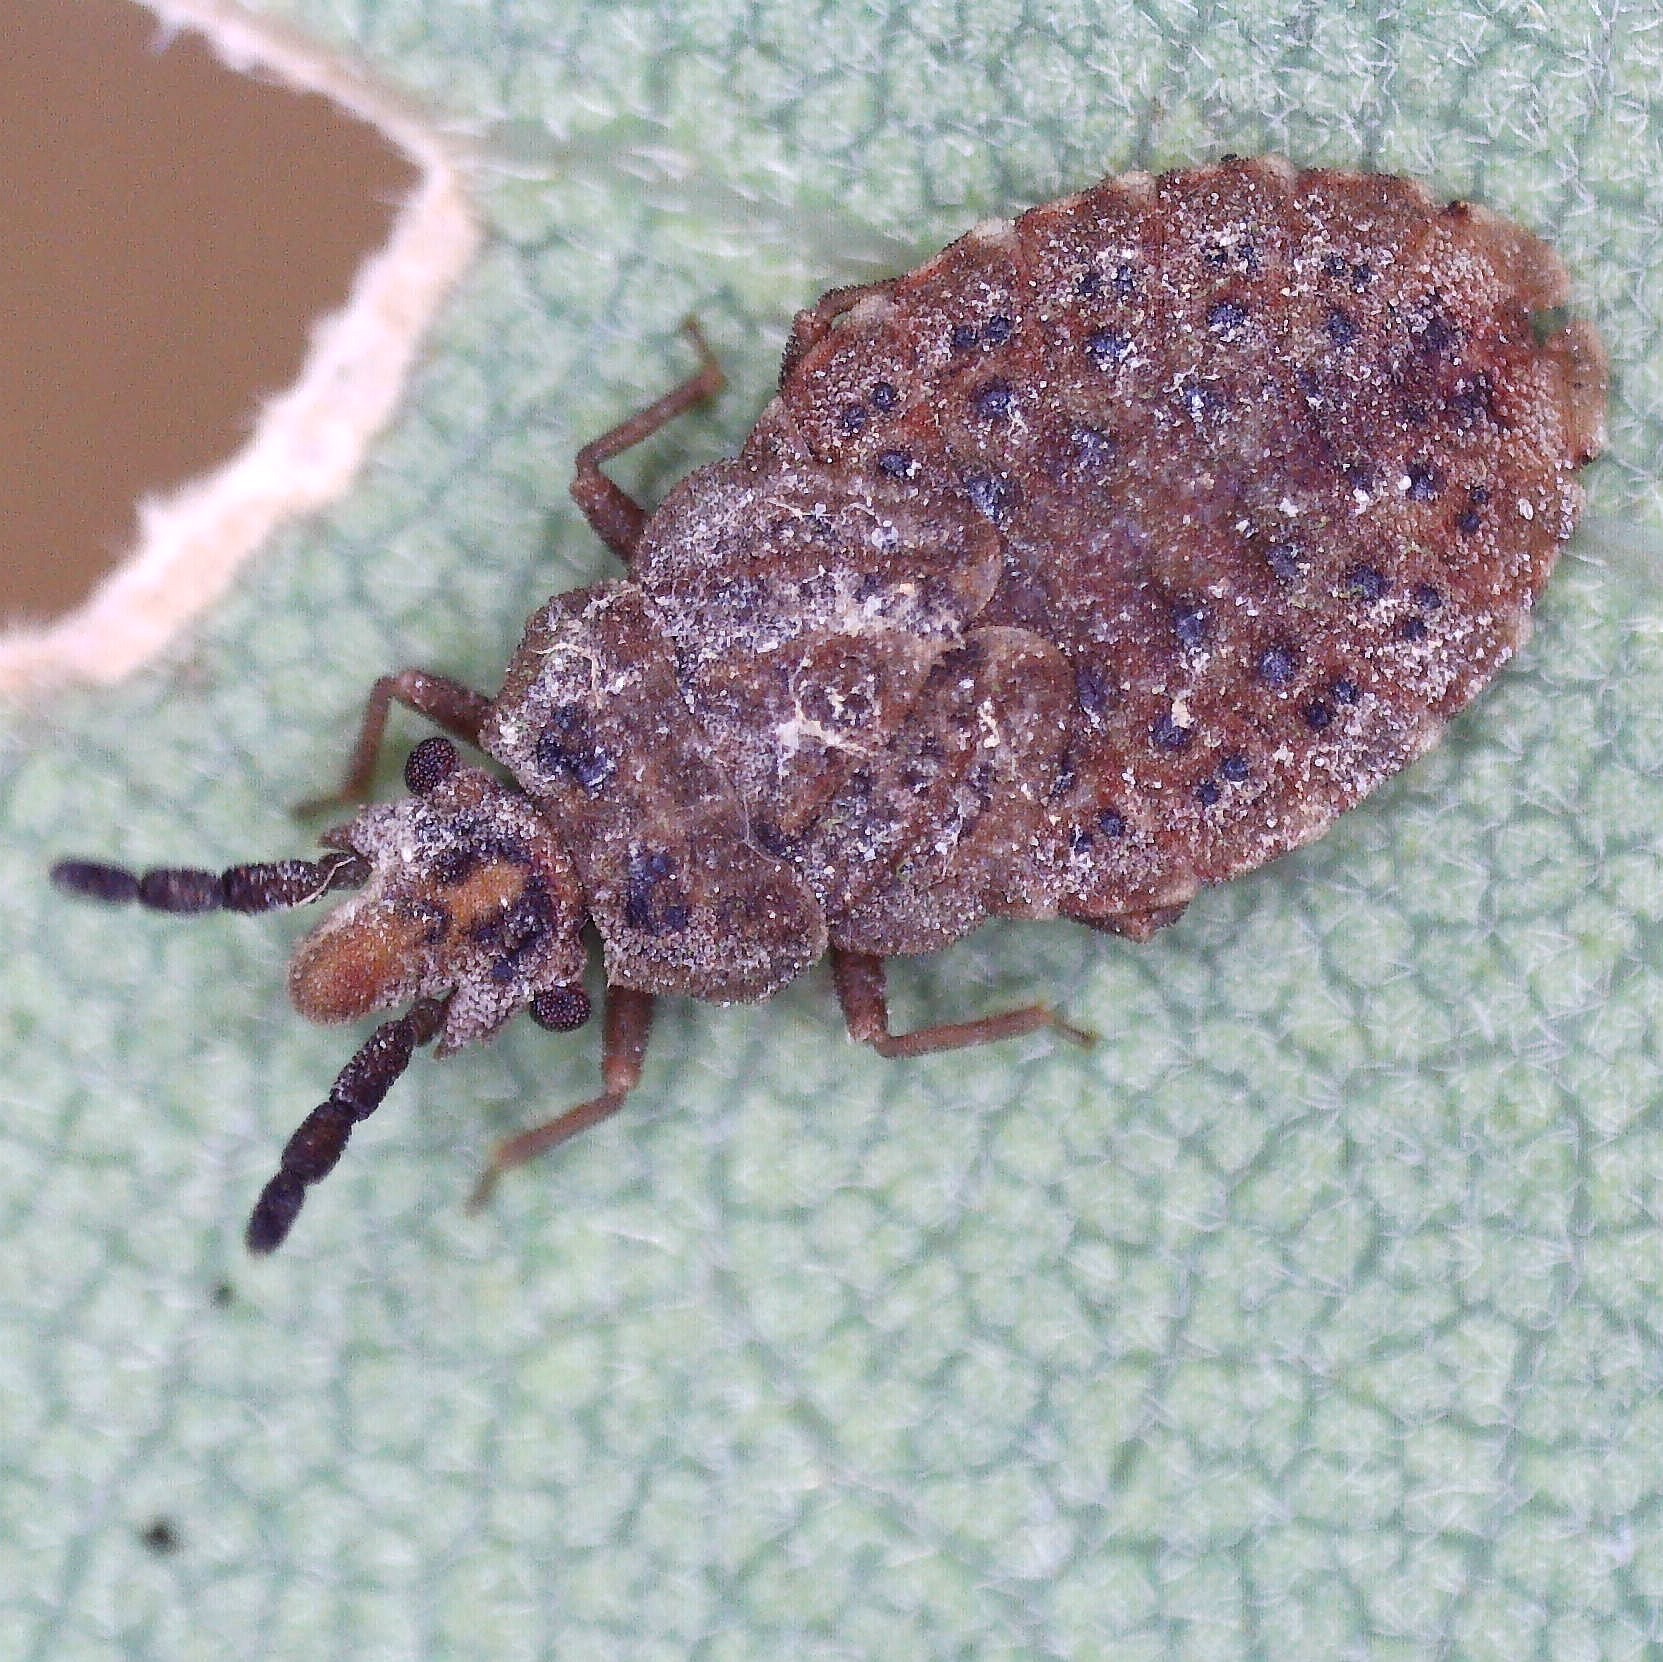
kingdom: Animalia
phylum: Arthropoda
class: Insecta
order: Hemiptera
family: Aradidae
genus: Aradus
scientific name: Aradus cinnamomeus
